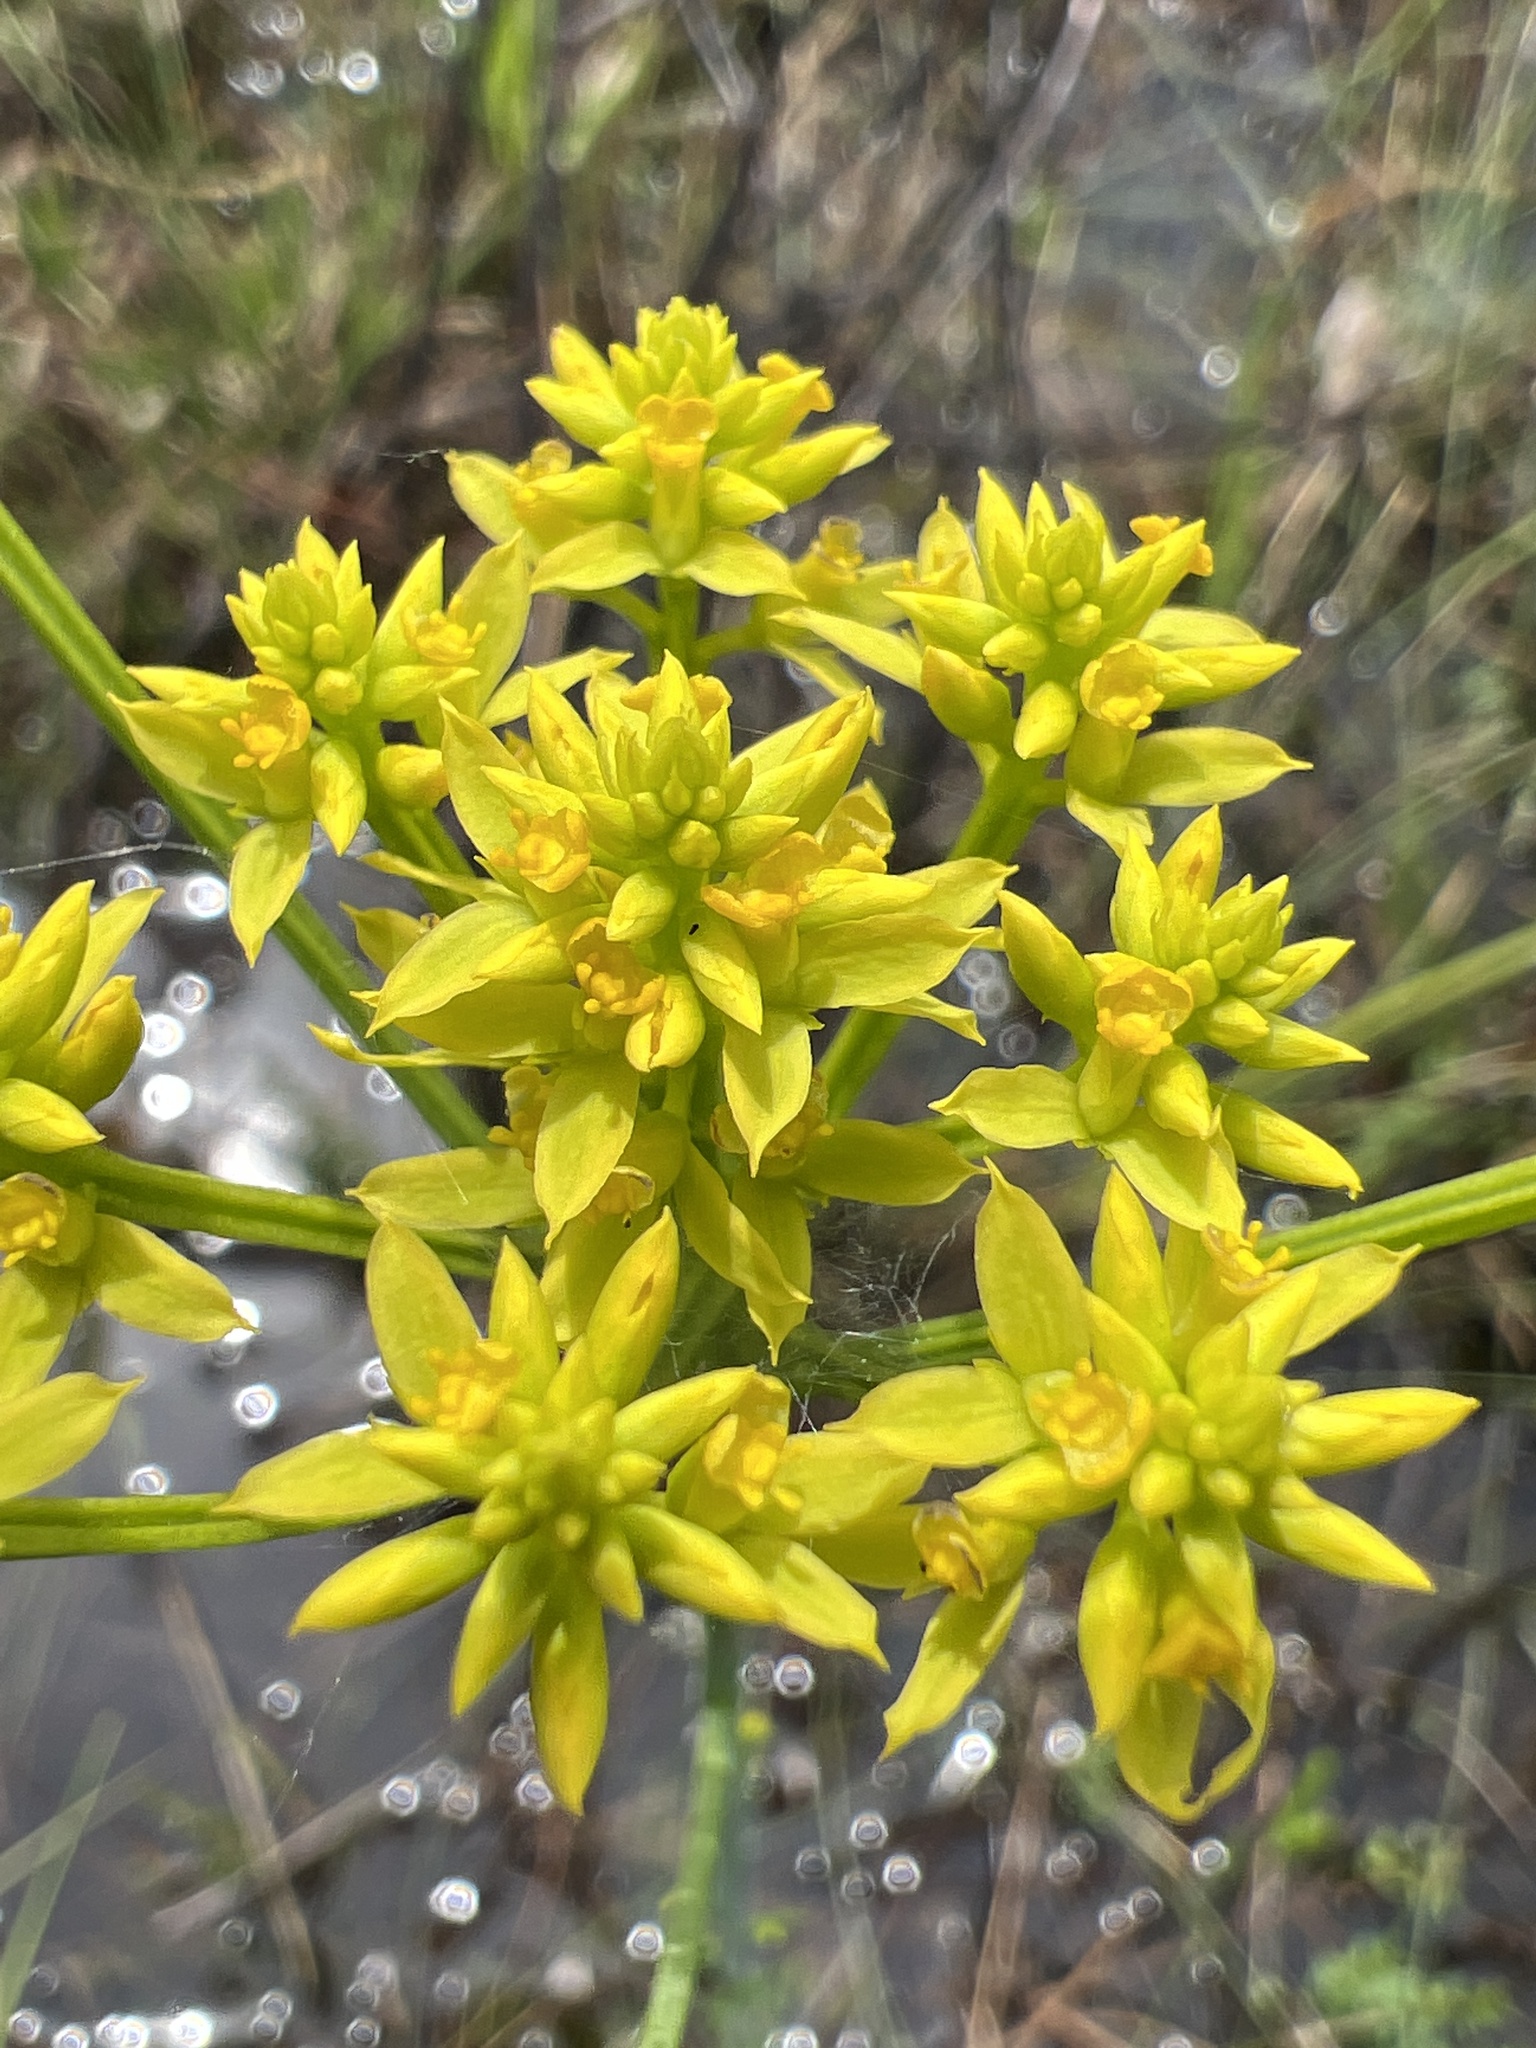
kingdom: Plantae
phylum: Tracheophyta
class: Magnoliopsida
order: Fabales
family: Polygalaceae
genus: Polygala
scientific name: Polygala cymosa
